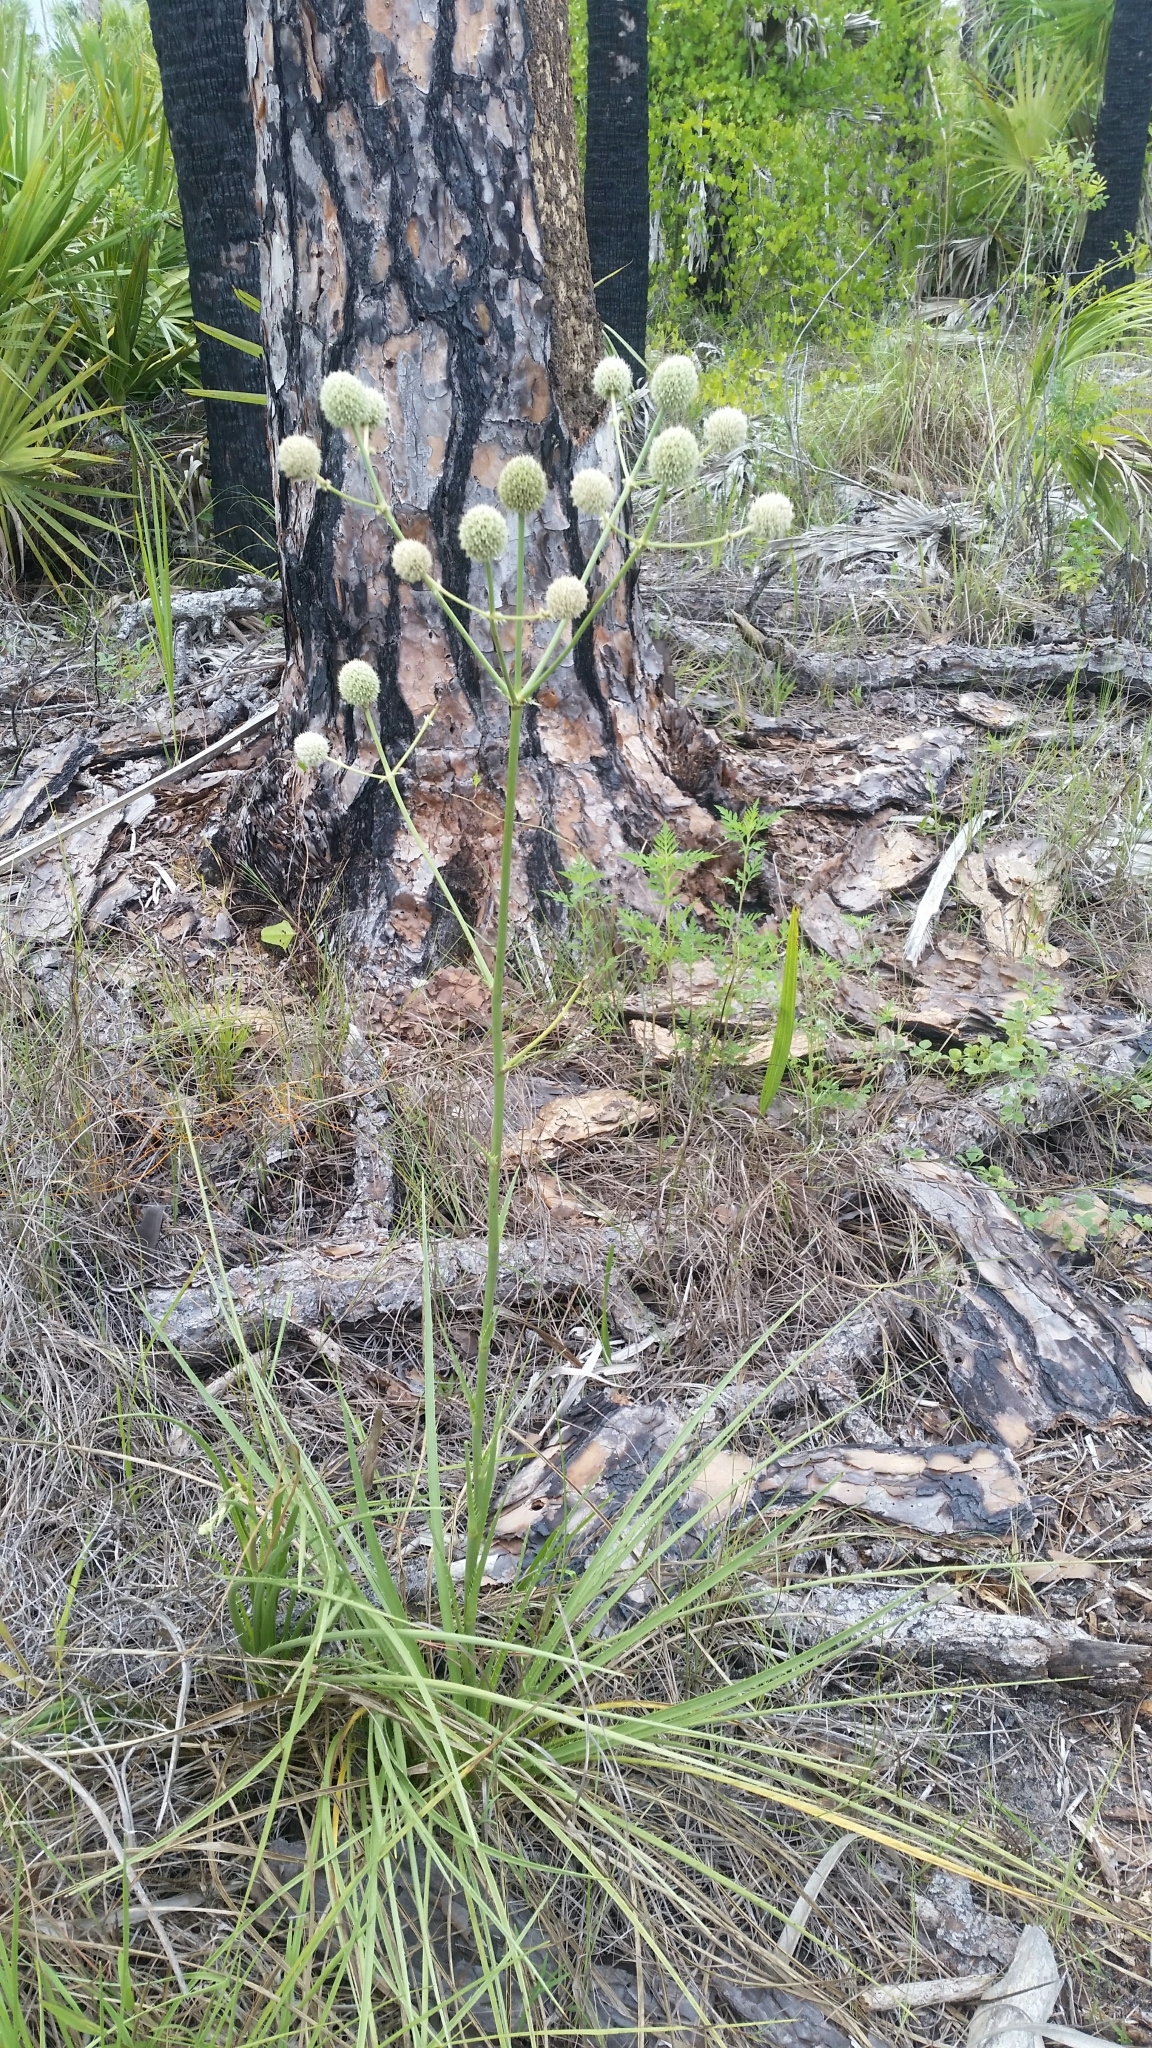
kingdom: Plantae
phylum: Tracheophyta
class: Magnoliopsida
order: Apiales
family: Apiaceae
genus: Eryngium
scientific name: Eryngium yuccifolium
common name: Button eryngo
